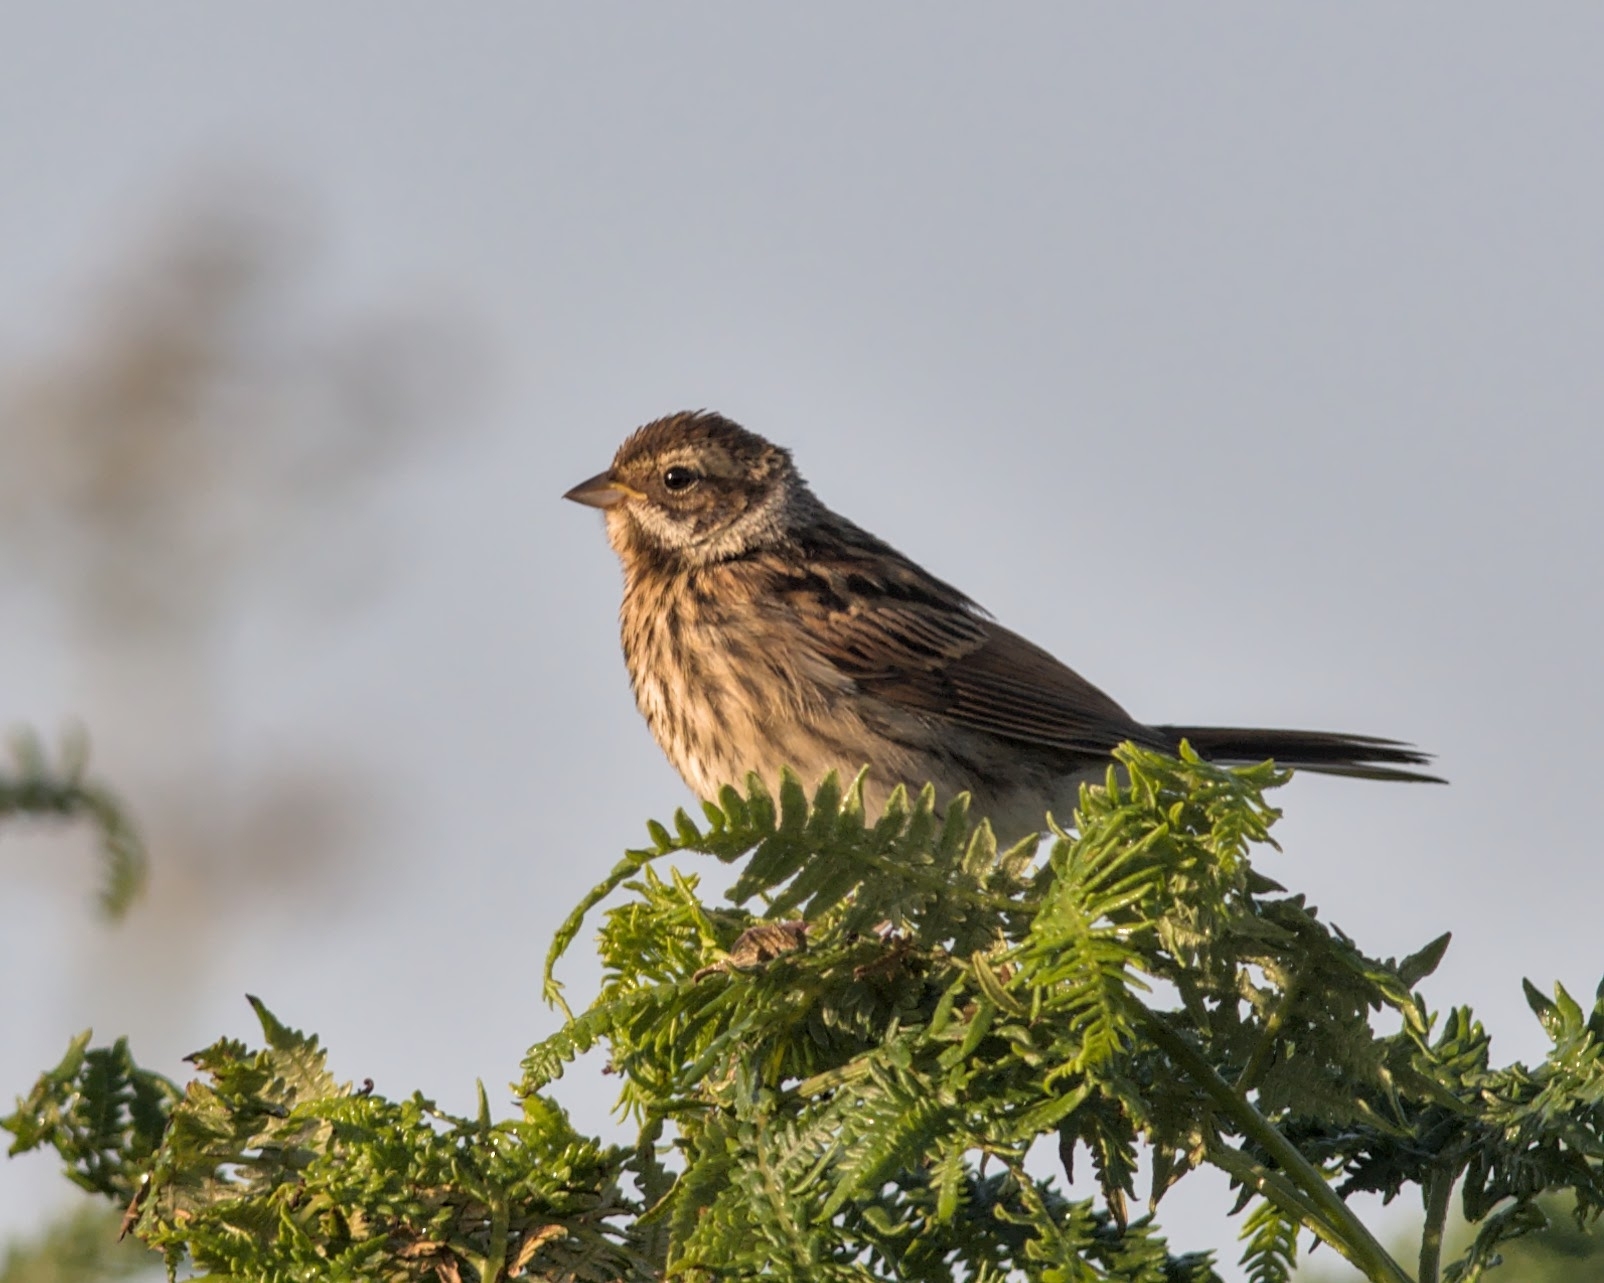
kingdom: Animalia
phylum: Chordata
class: Aves
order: Passeriformes
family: Emberizidae
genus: Emberiza
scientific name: Emberiza schoeniclus
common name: Reed bunting
